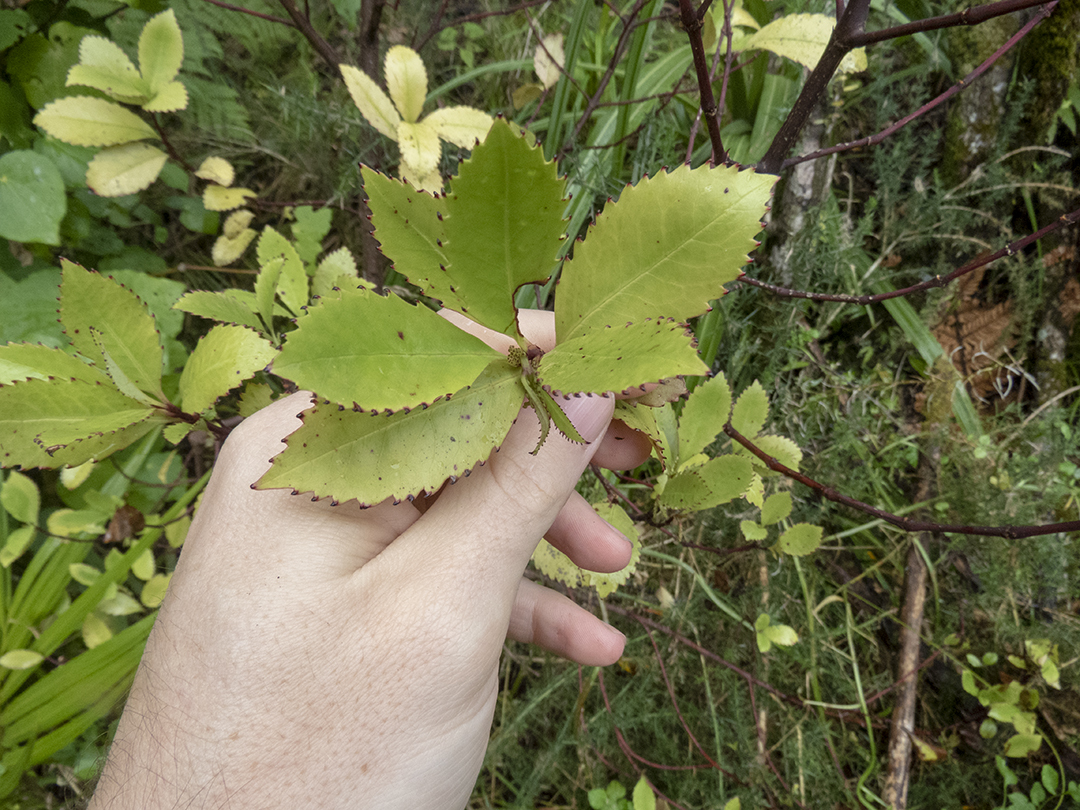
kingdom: Plantae
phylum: Tracheophyta
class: Magnoliopsida
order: Chloranthales
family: Chloranthaceae
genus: Ascarina
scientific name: Ascarina lucida
